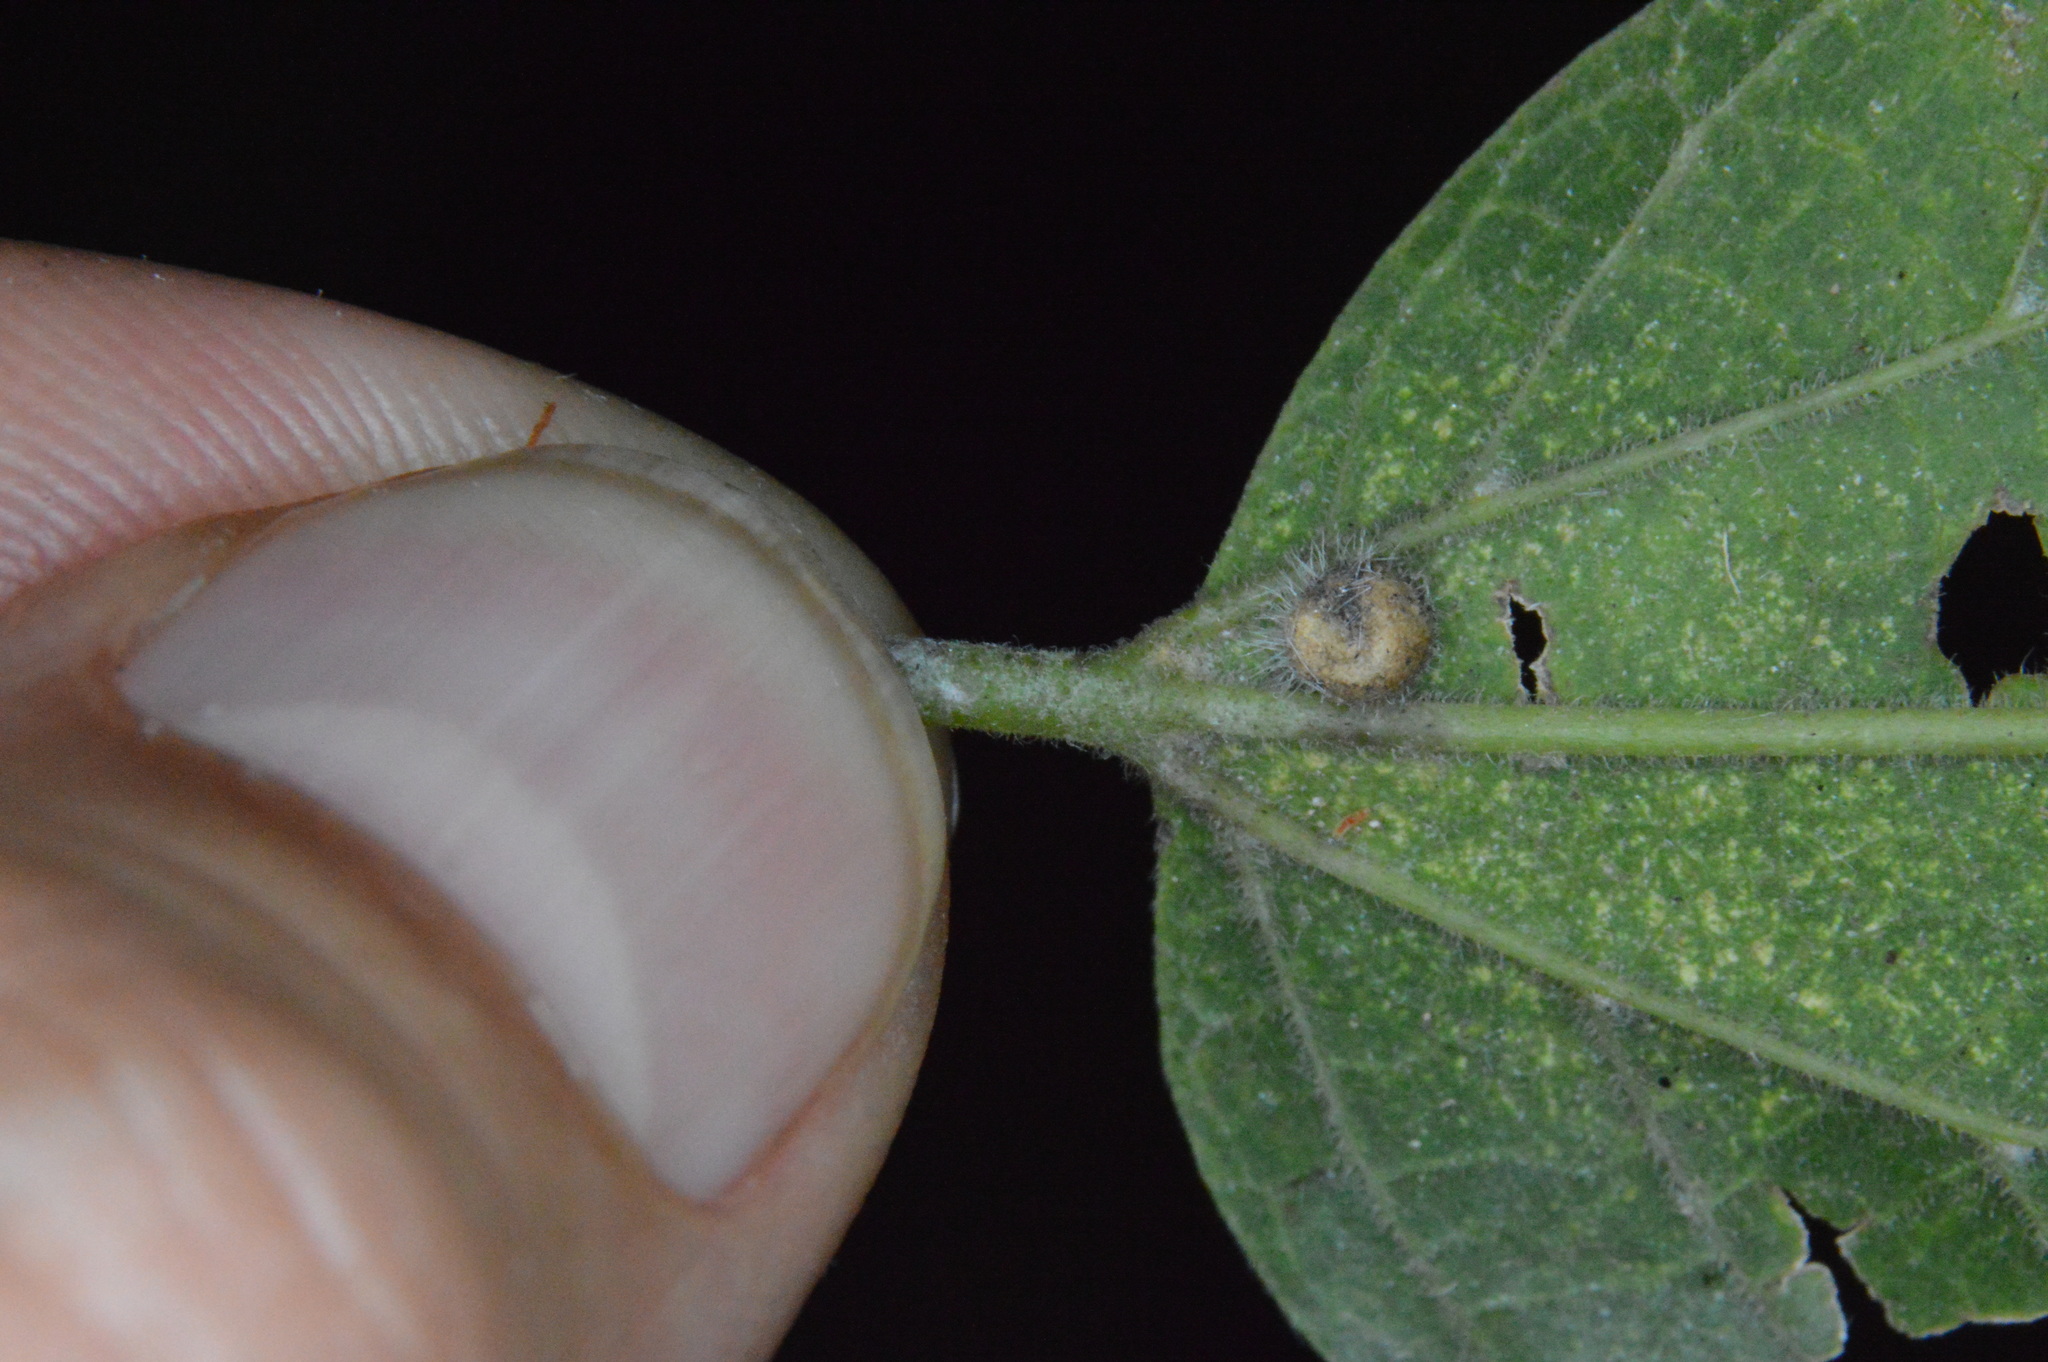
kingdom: Animalia
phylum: Arthropoda
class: Insecta
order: Diptera
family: Cecidomyiidae
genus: Celticecis
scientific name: Celticecis pubescens
